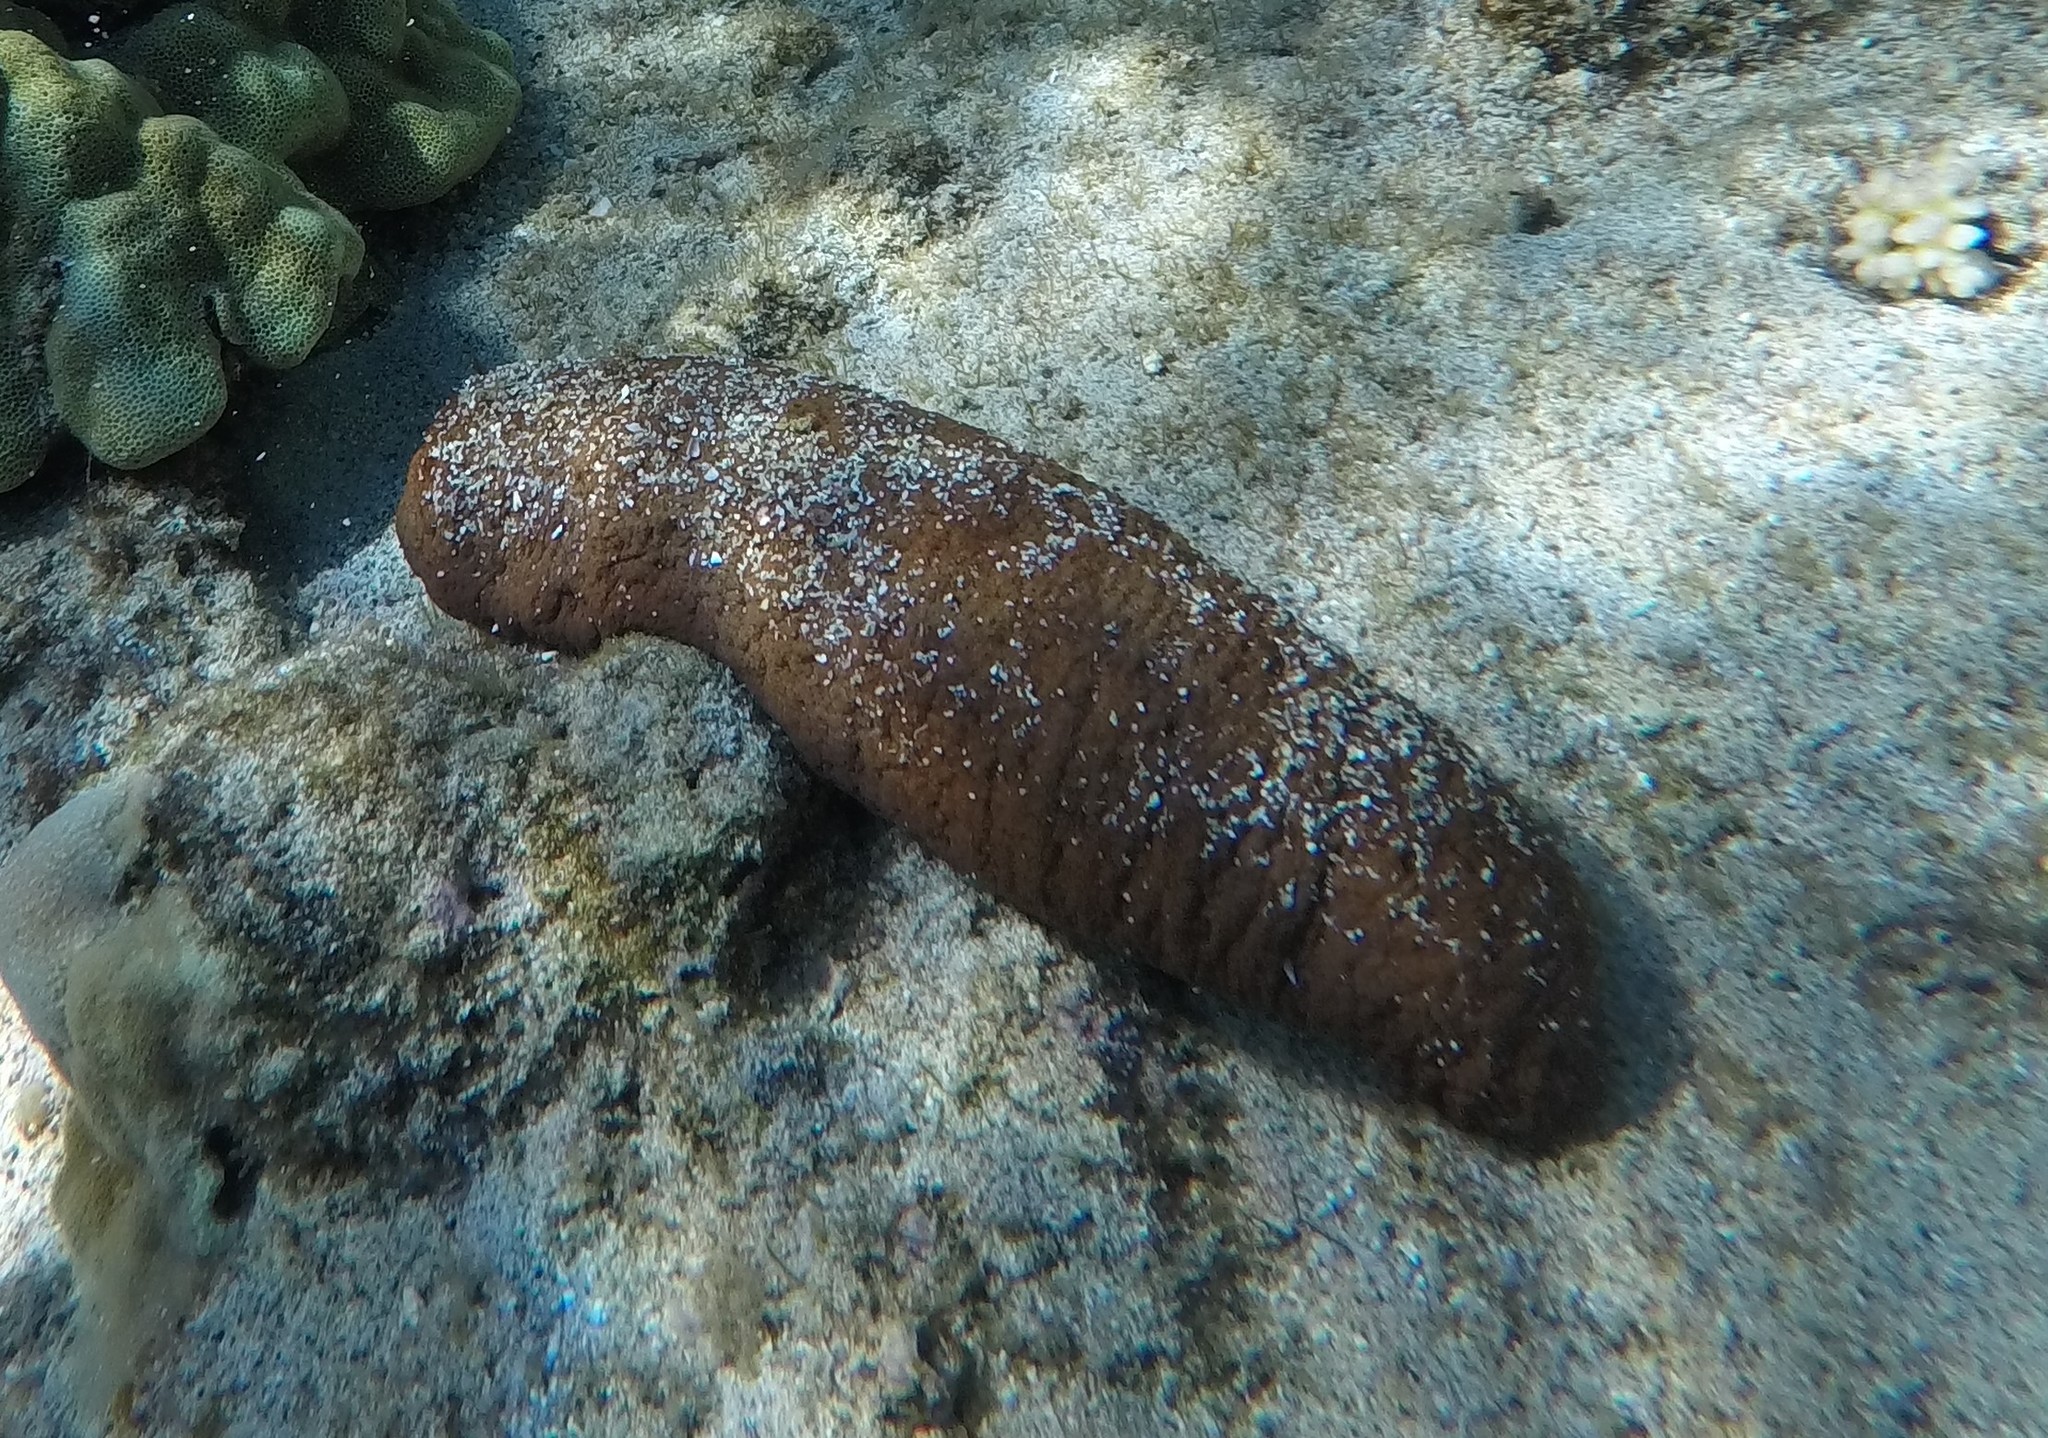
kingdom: Animalia
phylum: Echinodermata
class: Holothuroidea
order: Holothuriida
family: Holothuriidae
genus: Actinopyga
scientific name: Actinopyga varians
